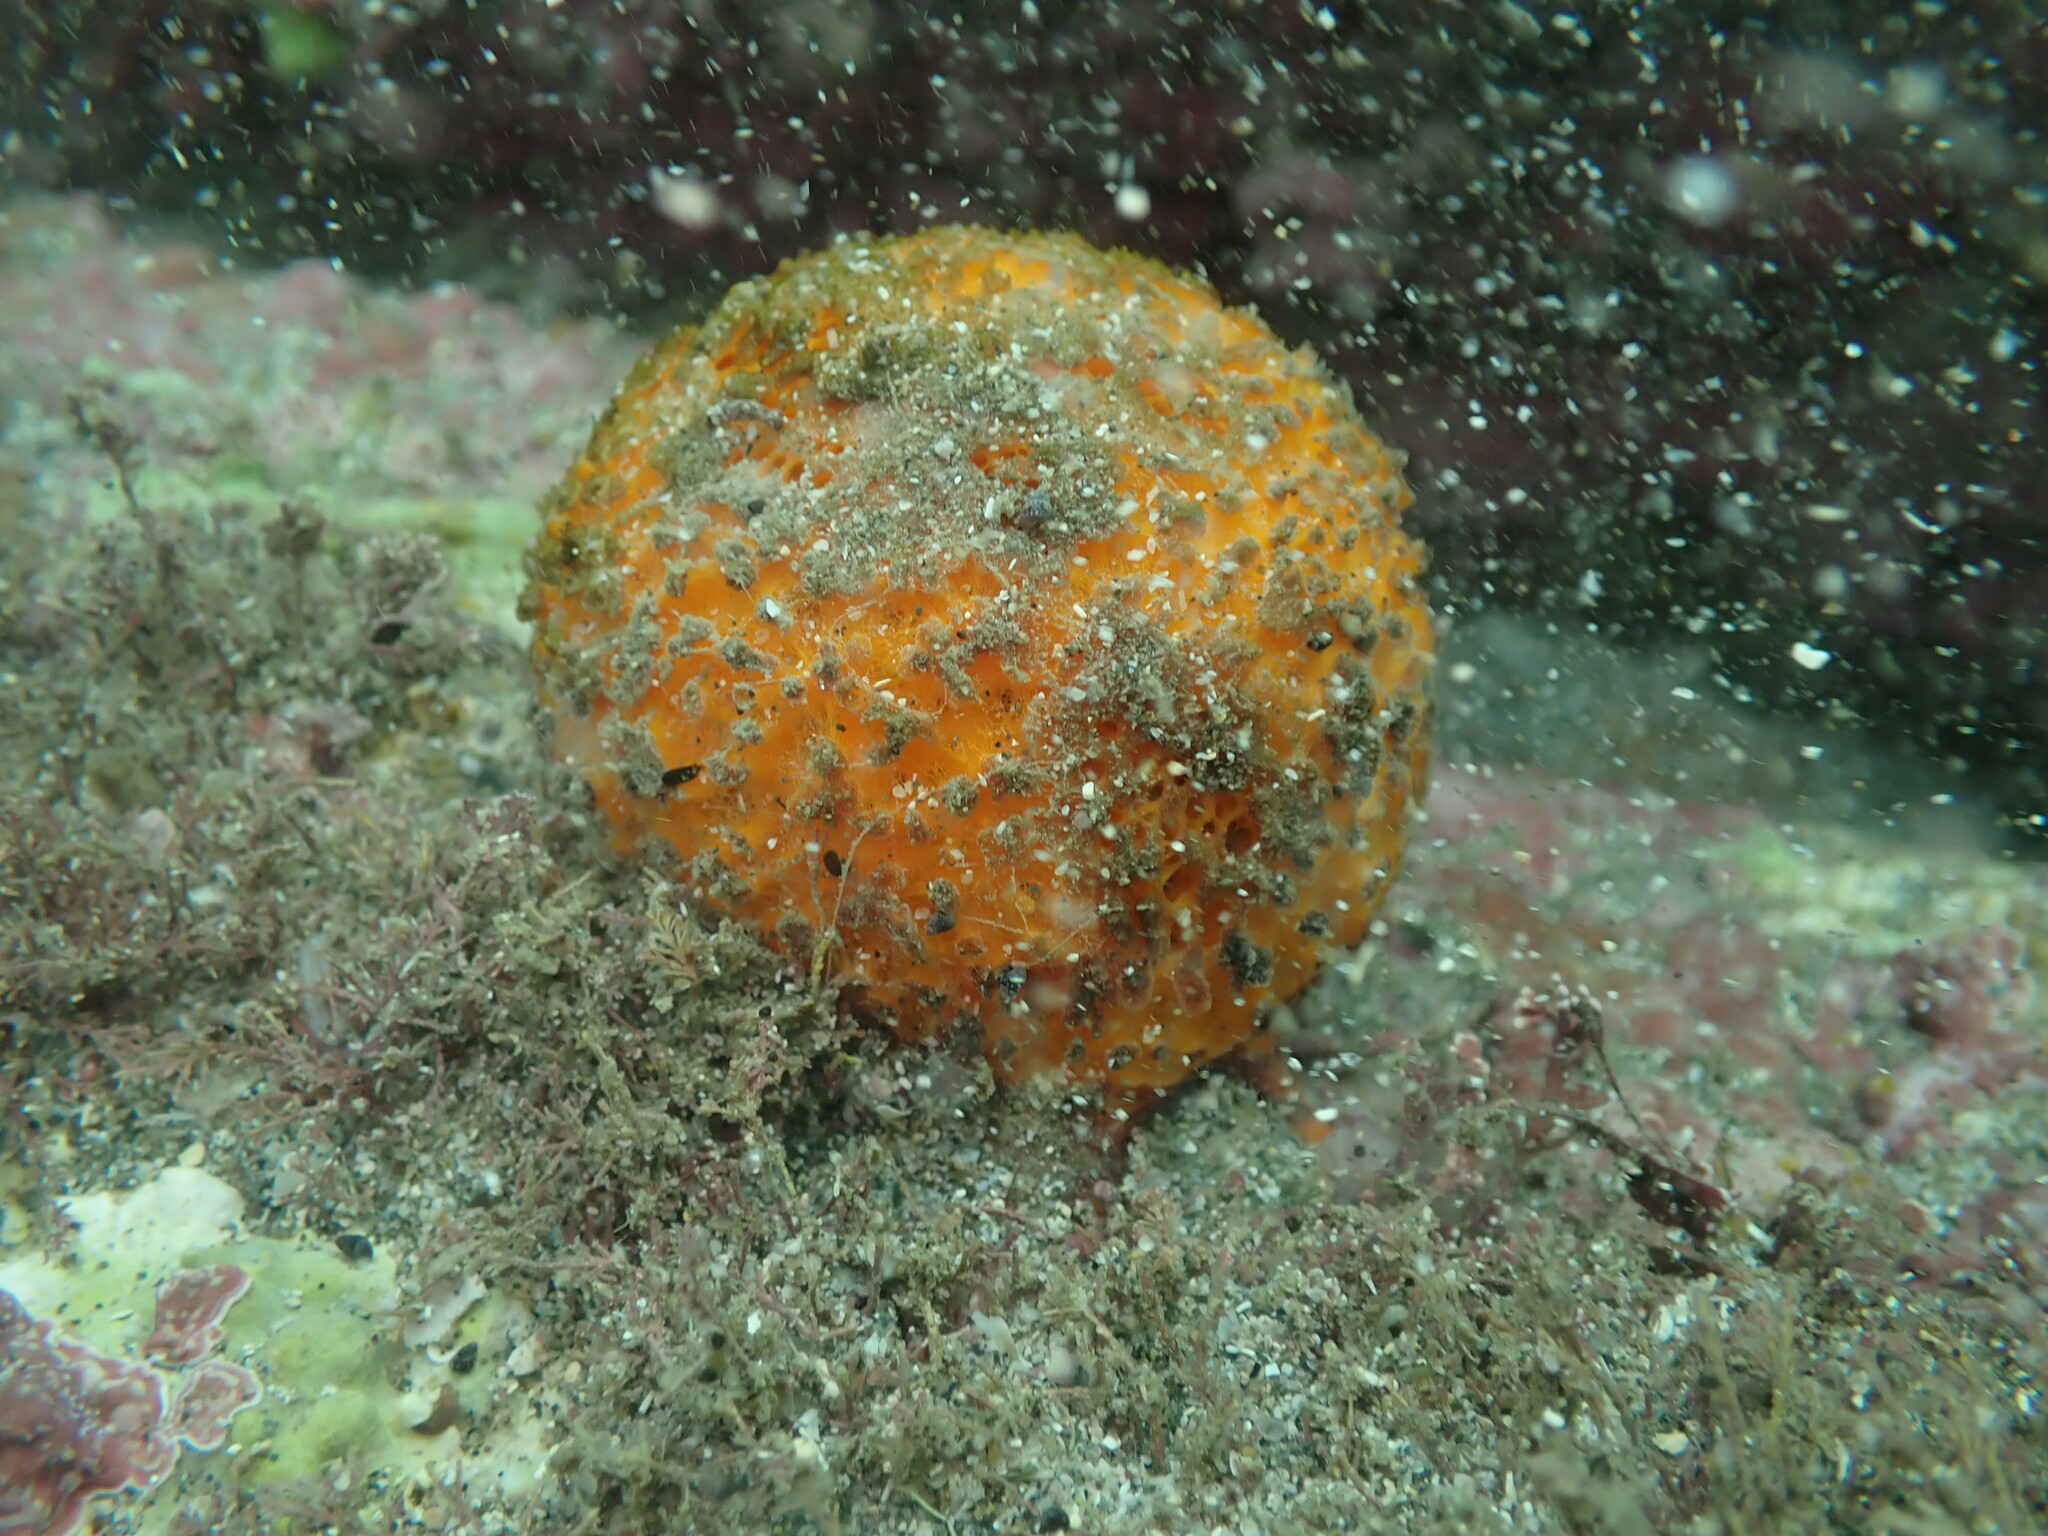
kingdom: Animalia
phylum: Porifera
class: Demospongiae
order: Tethyida
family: Tethyidae
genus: Tethya
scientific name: Tethya burtoni
